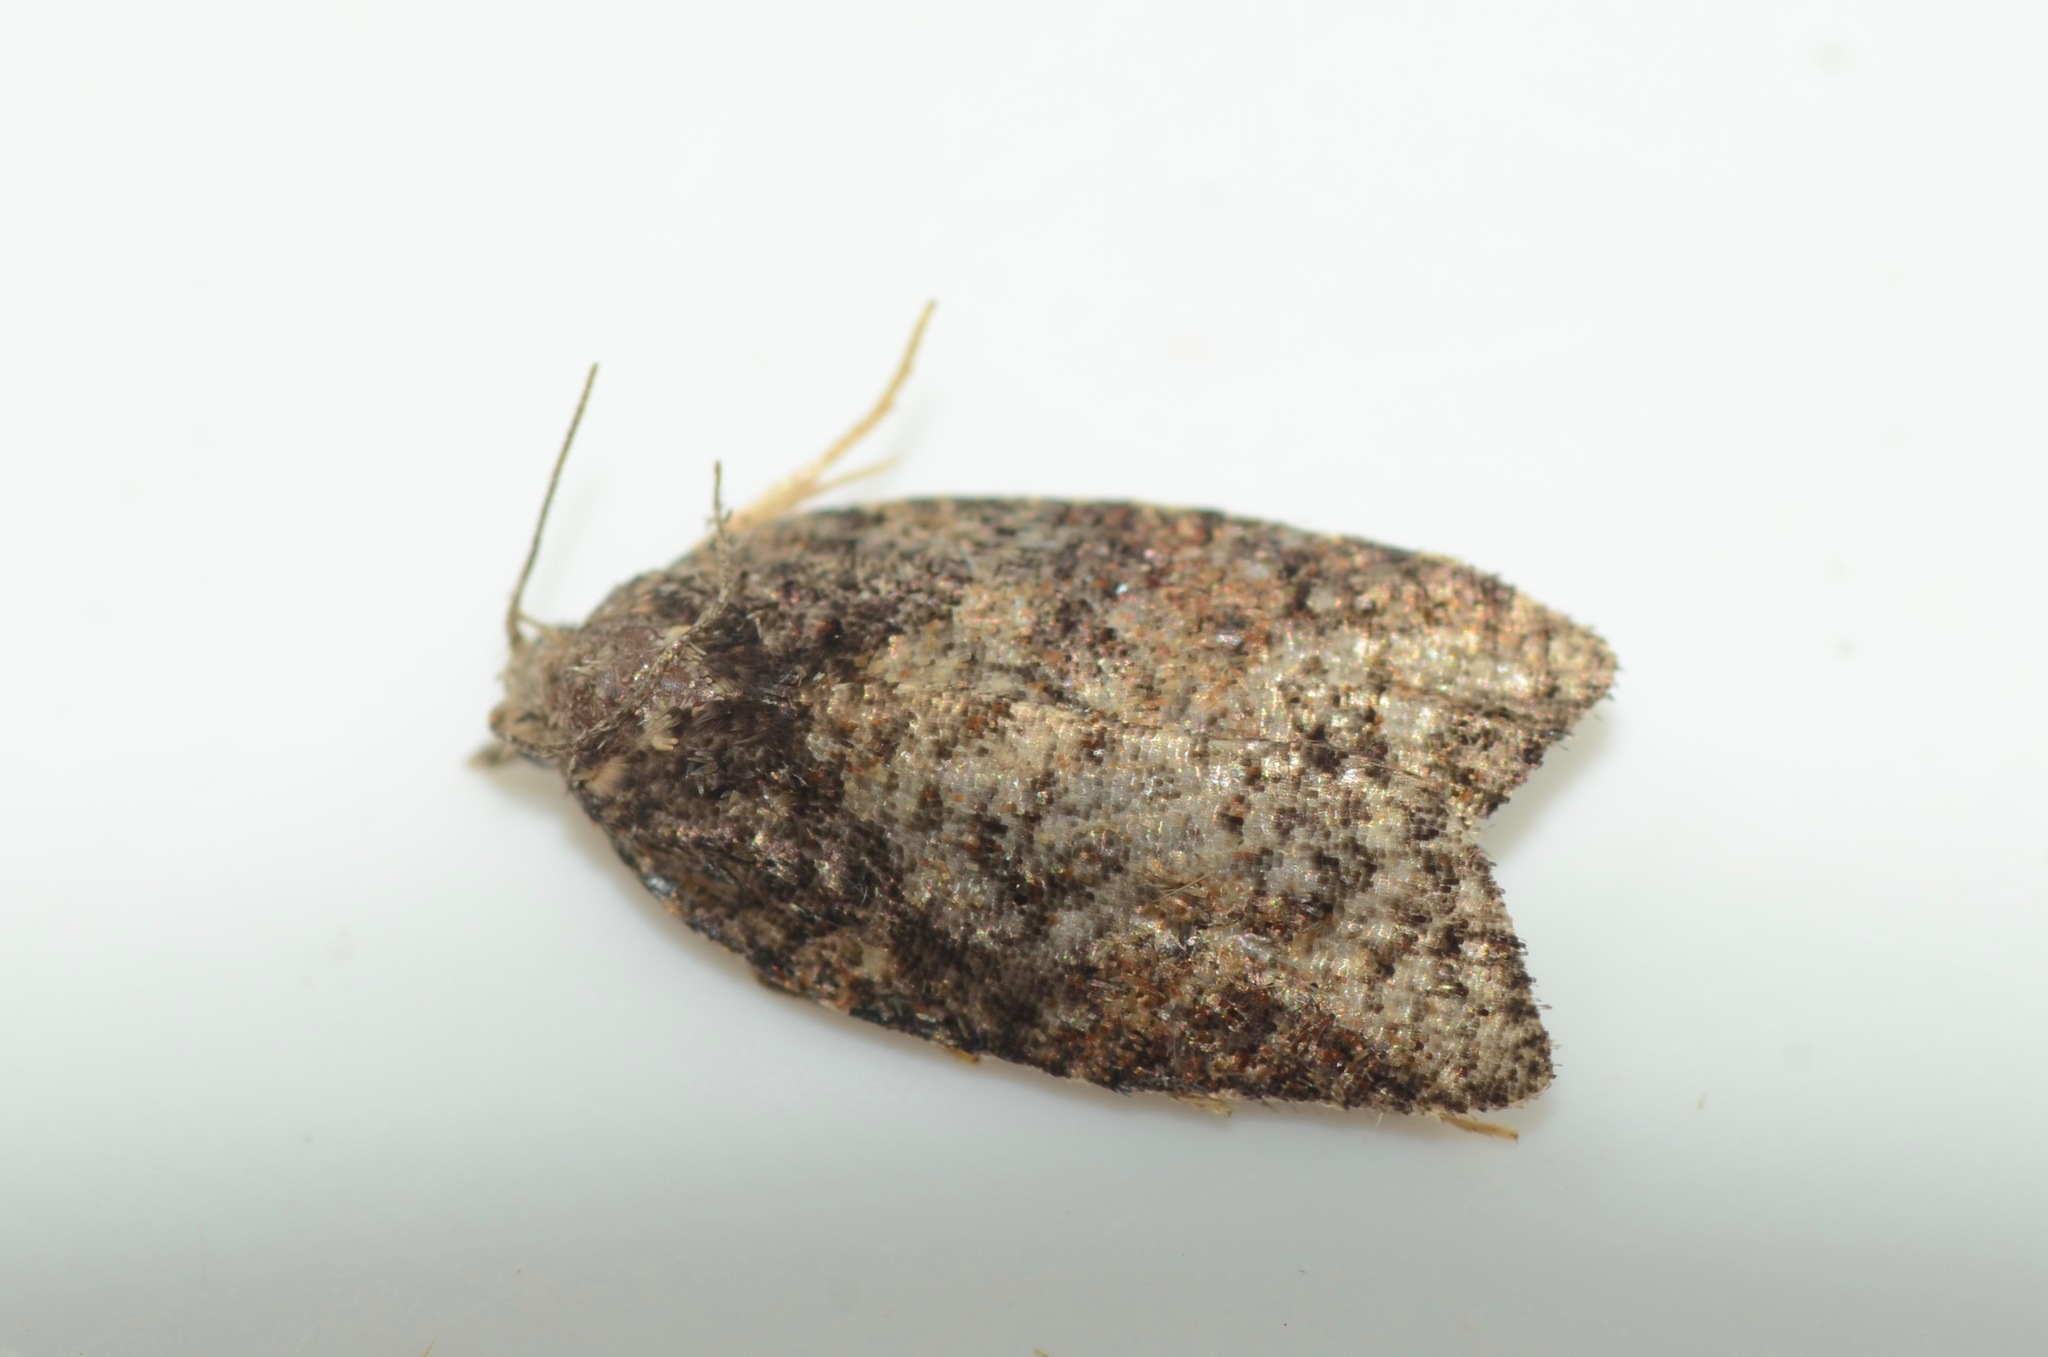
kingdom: Animalia
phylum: Arthropoda
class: Insecta
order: Lepidoptera
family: Tortricidae
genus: Capua
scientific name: Capua intractana
